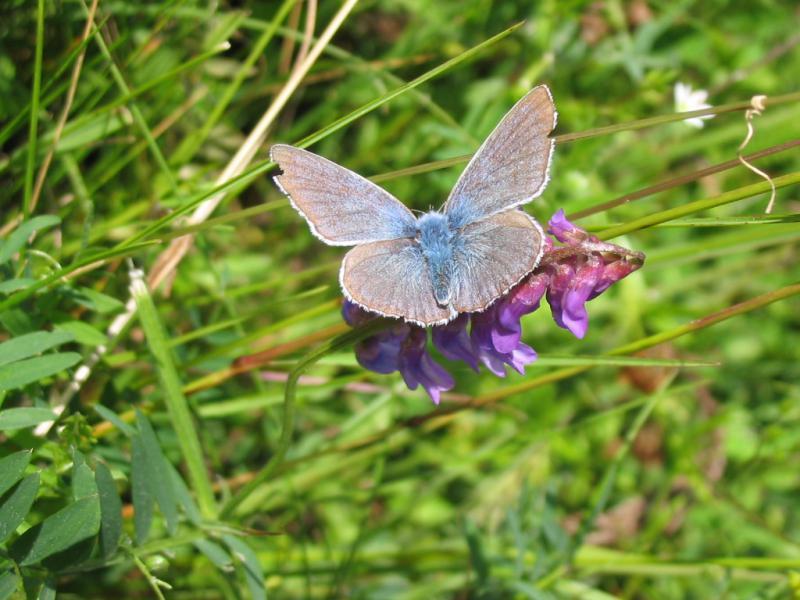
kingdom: Animalia
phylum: Arthropoda
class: Insecta
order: Lepidoptera
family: Lycaenidae
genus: Plebejus
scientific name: Plebejus amanda
